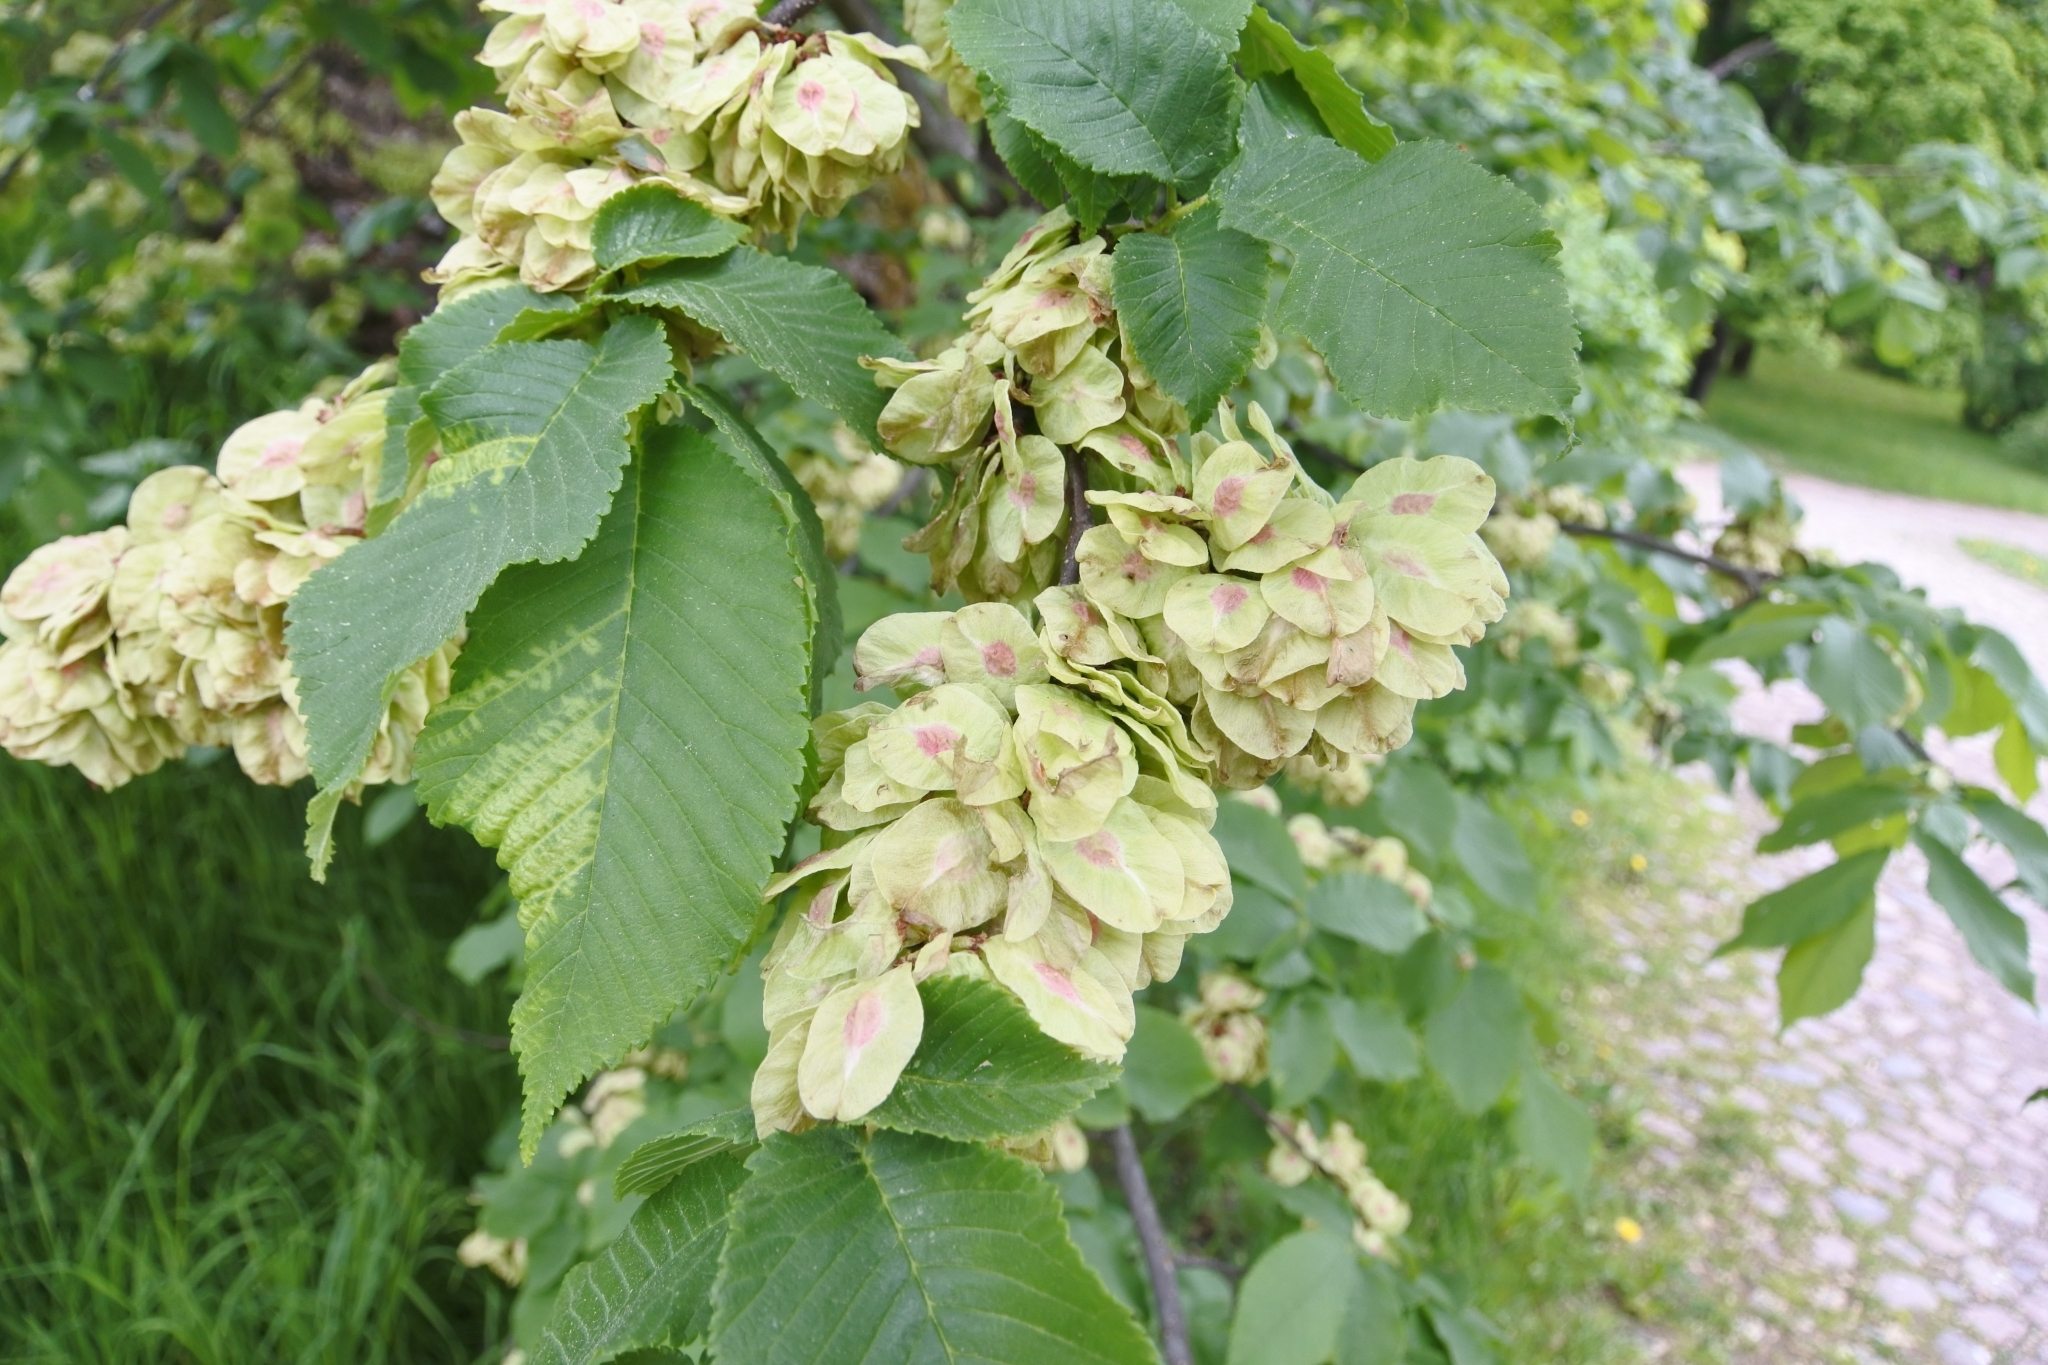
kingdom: Plantae
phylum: Tracheophyta
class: Magnoliopsida
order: Rosales
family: Ulmaceae
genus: Ulmus
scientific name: Ulmus glabra
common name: Wych elm
